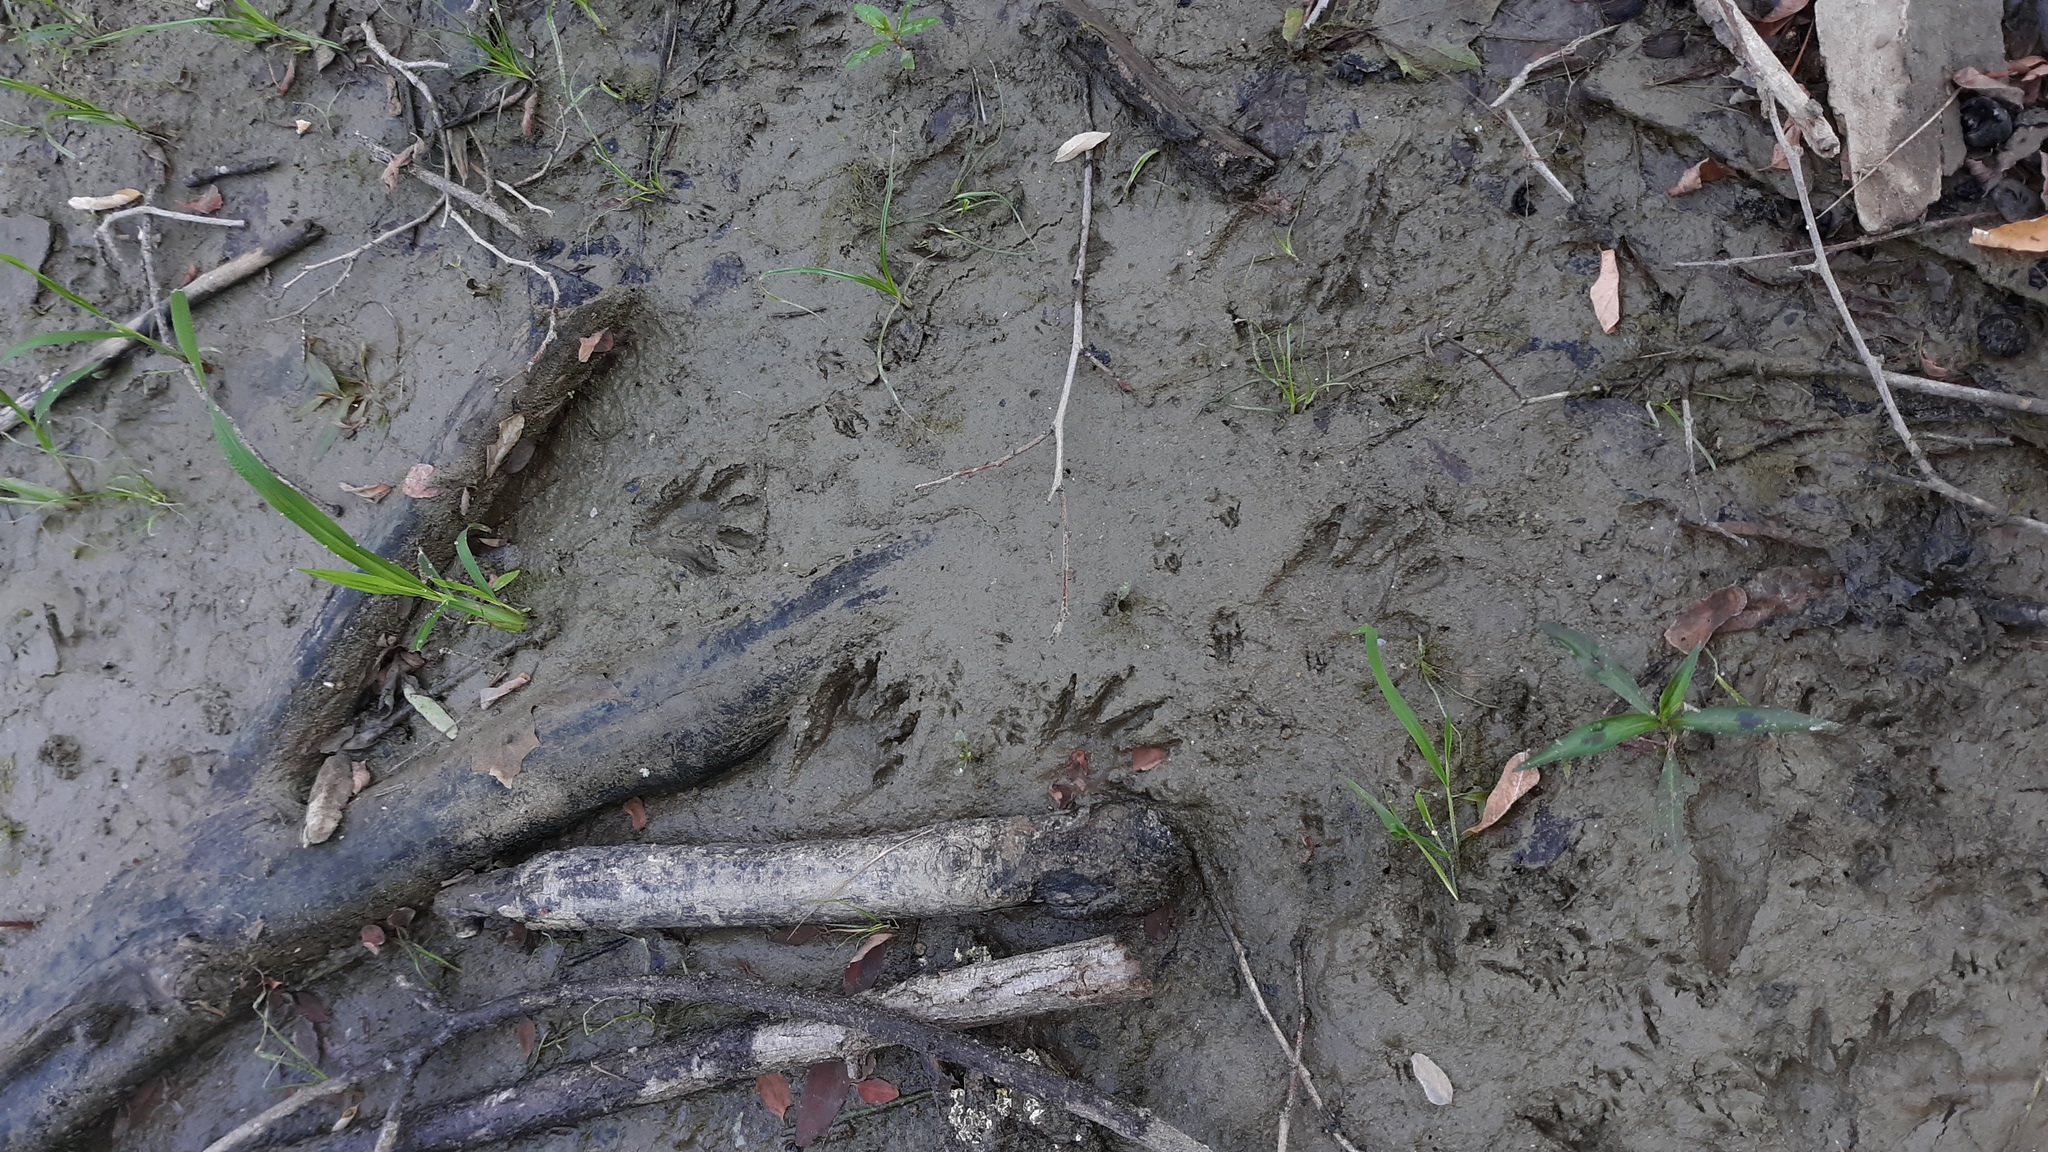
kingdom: Animalia
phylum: Chordata
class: Mammalia
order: Carnivora
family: Procyonidae
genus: Procyon
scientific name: Procyon lotor
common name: Raccoon
